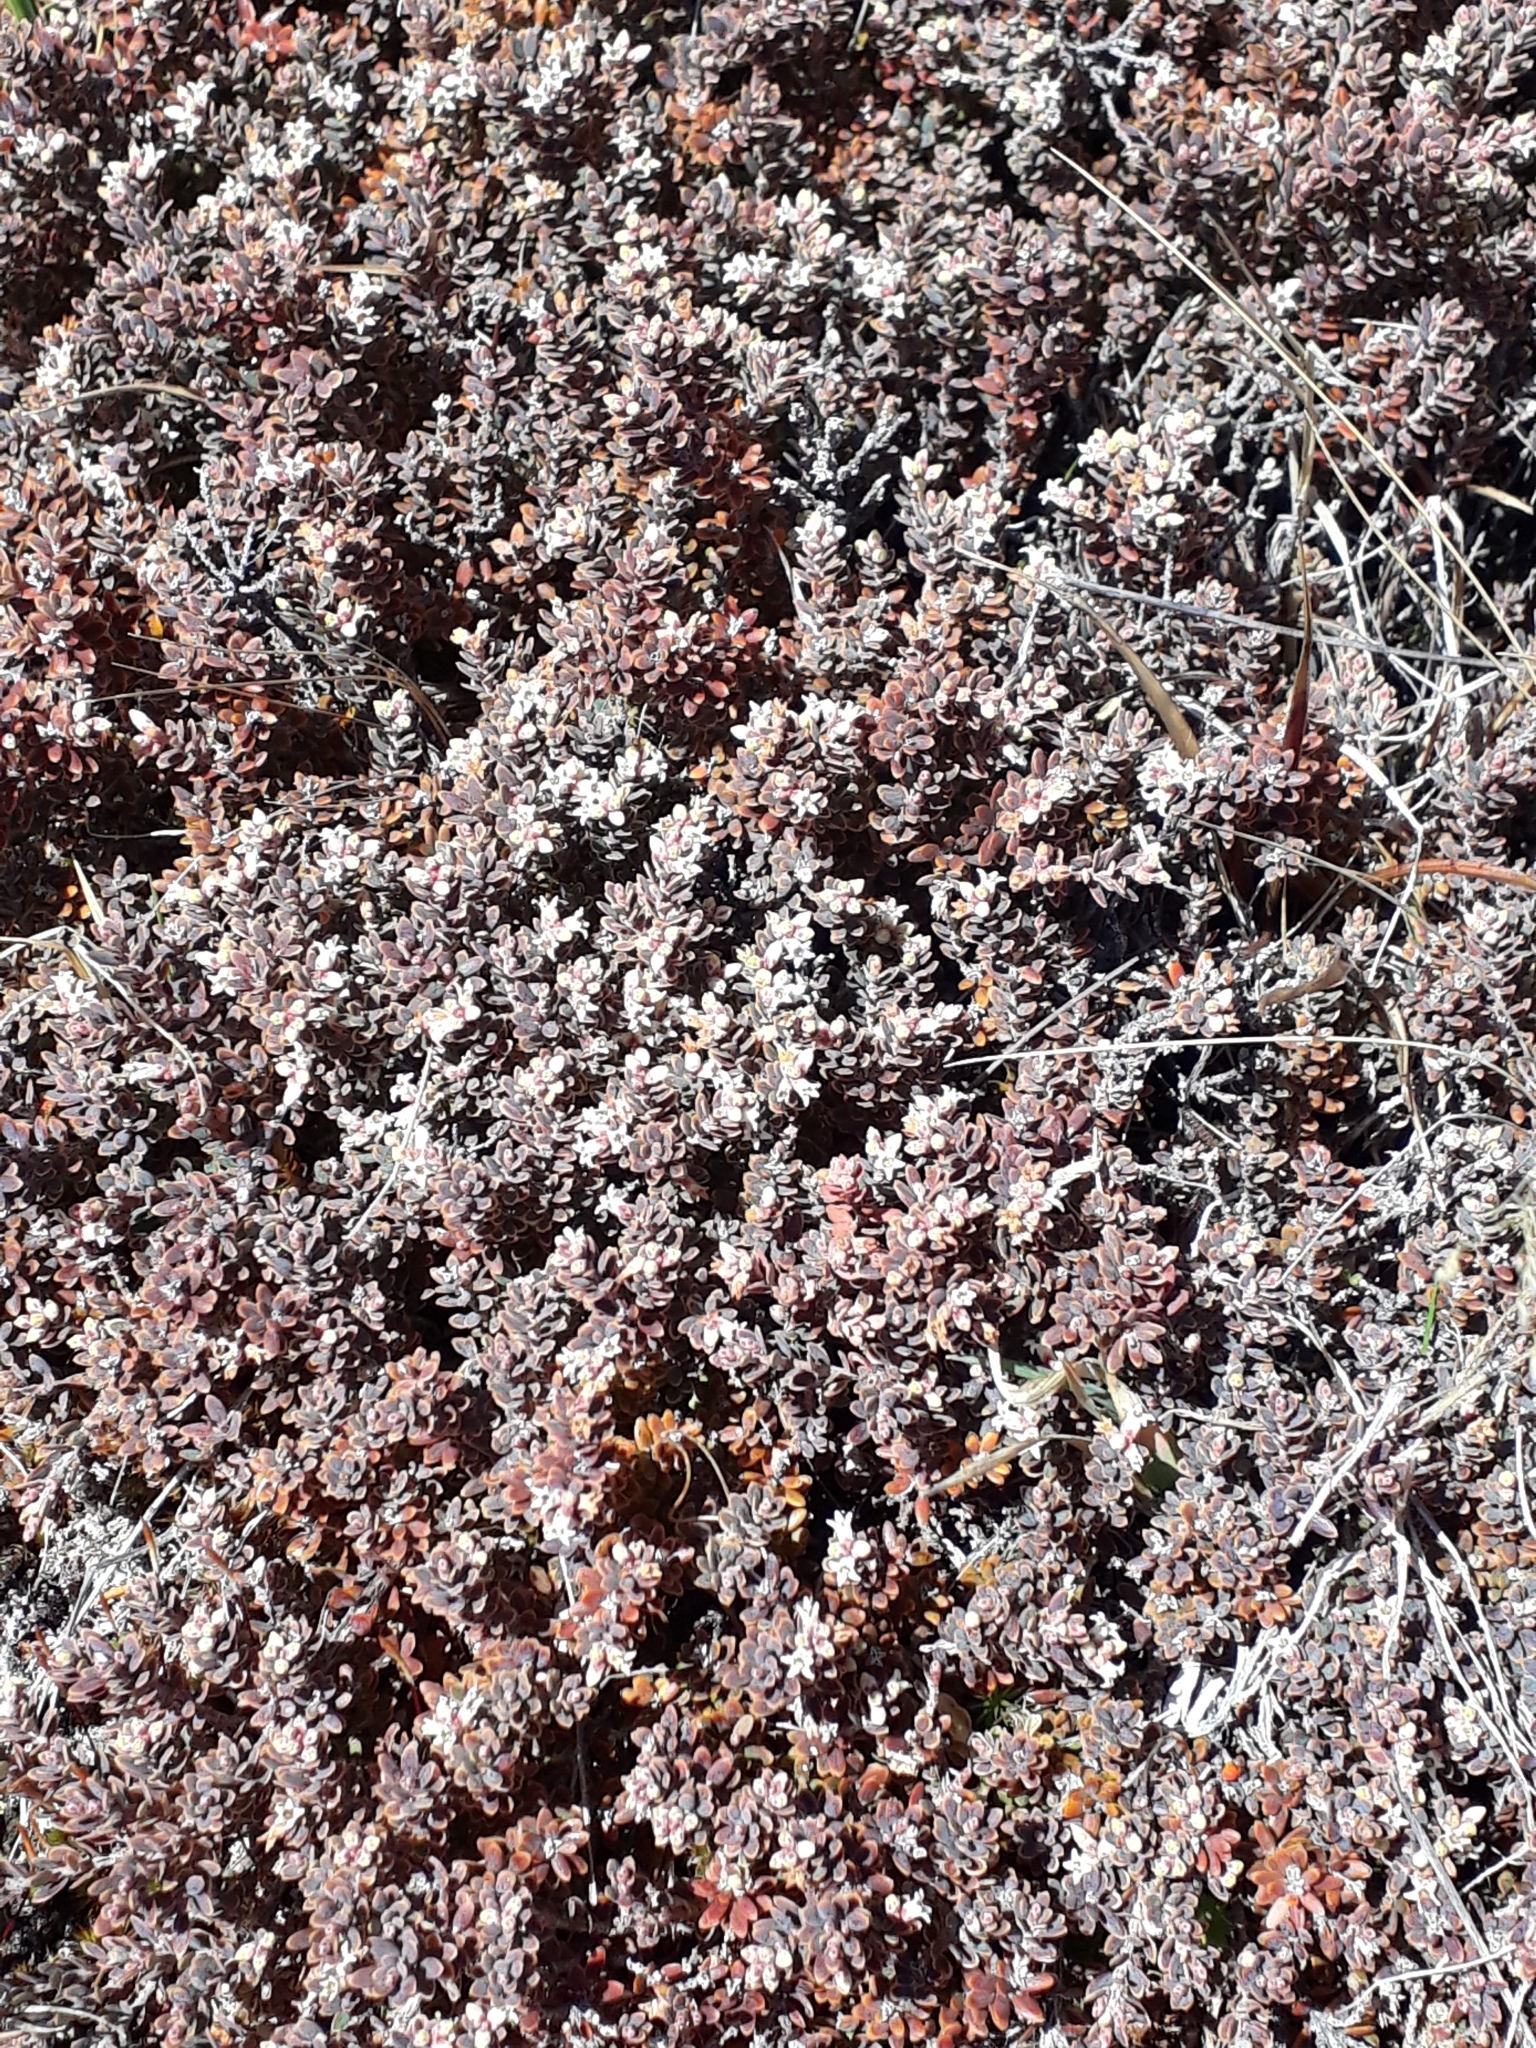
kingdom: Plantae
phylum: Tracheophyta
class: Magnoliopsida
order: Ericales
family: Ericaceae
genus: Acrothamnus
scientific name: Acrothamnus colensoi
